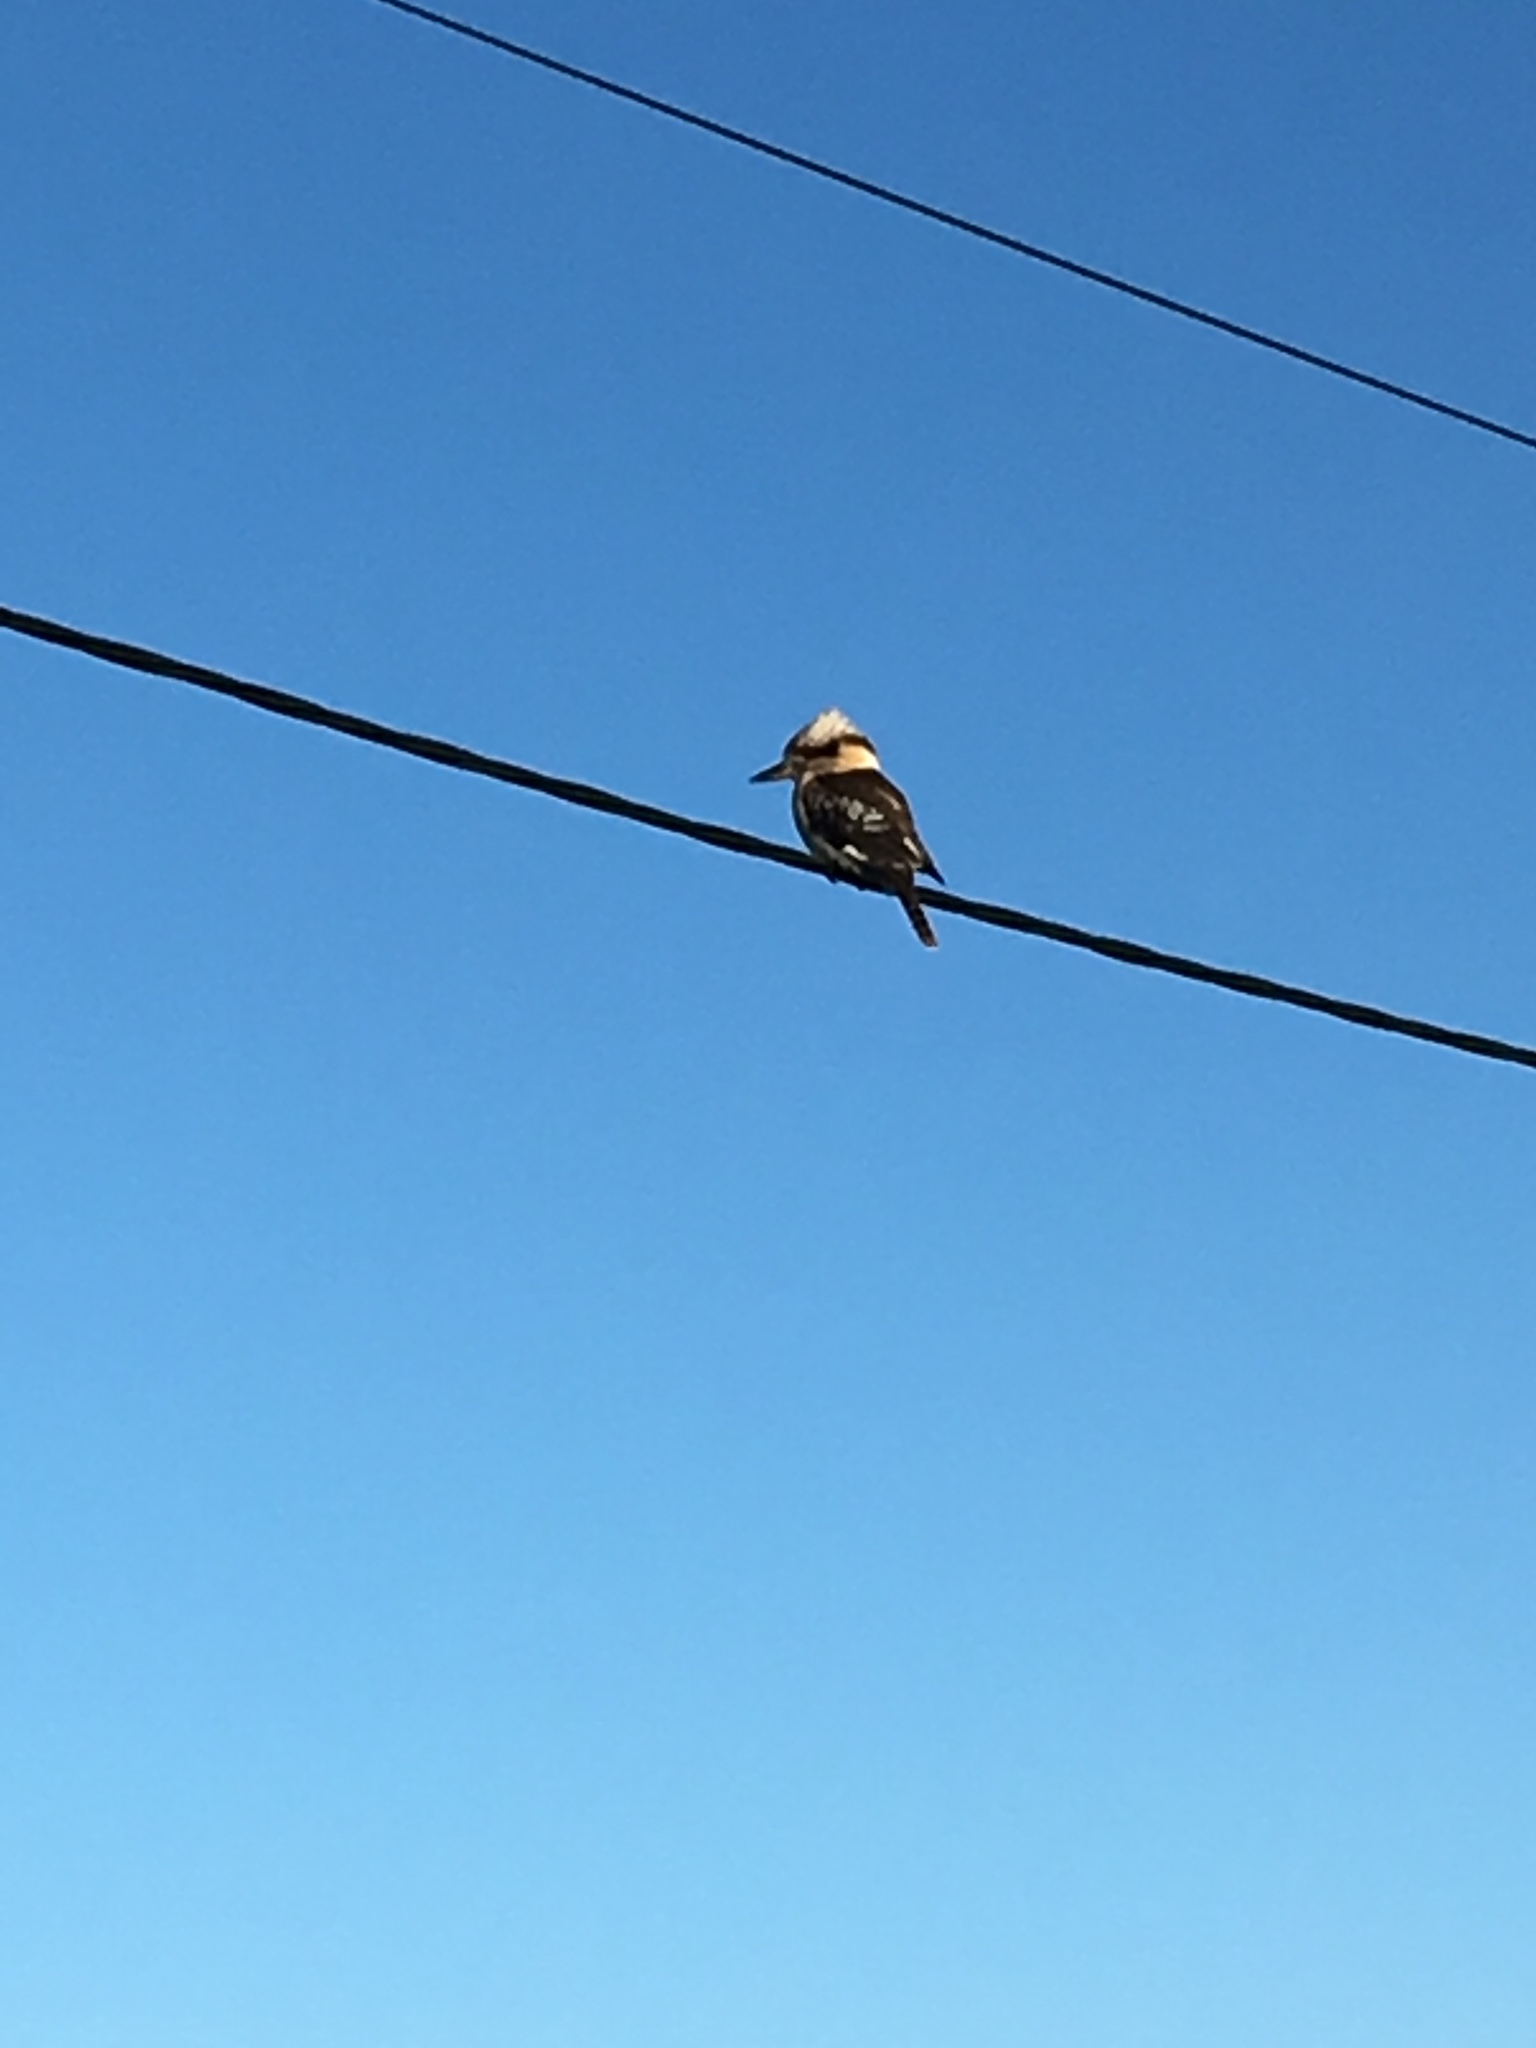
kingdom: Animalia
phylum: Chordata
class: Aves
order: Coraciiformes
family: Alcedinidae
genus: Dacelo
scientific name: Dacelo novaeguineae
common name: Laughing kookaburra
